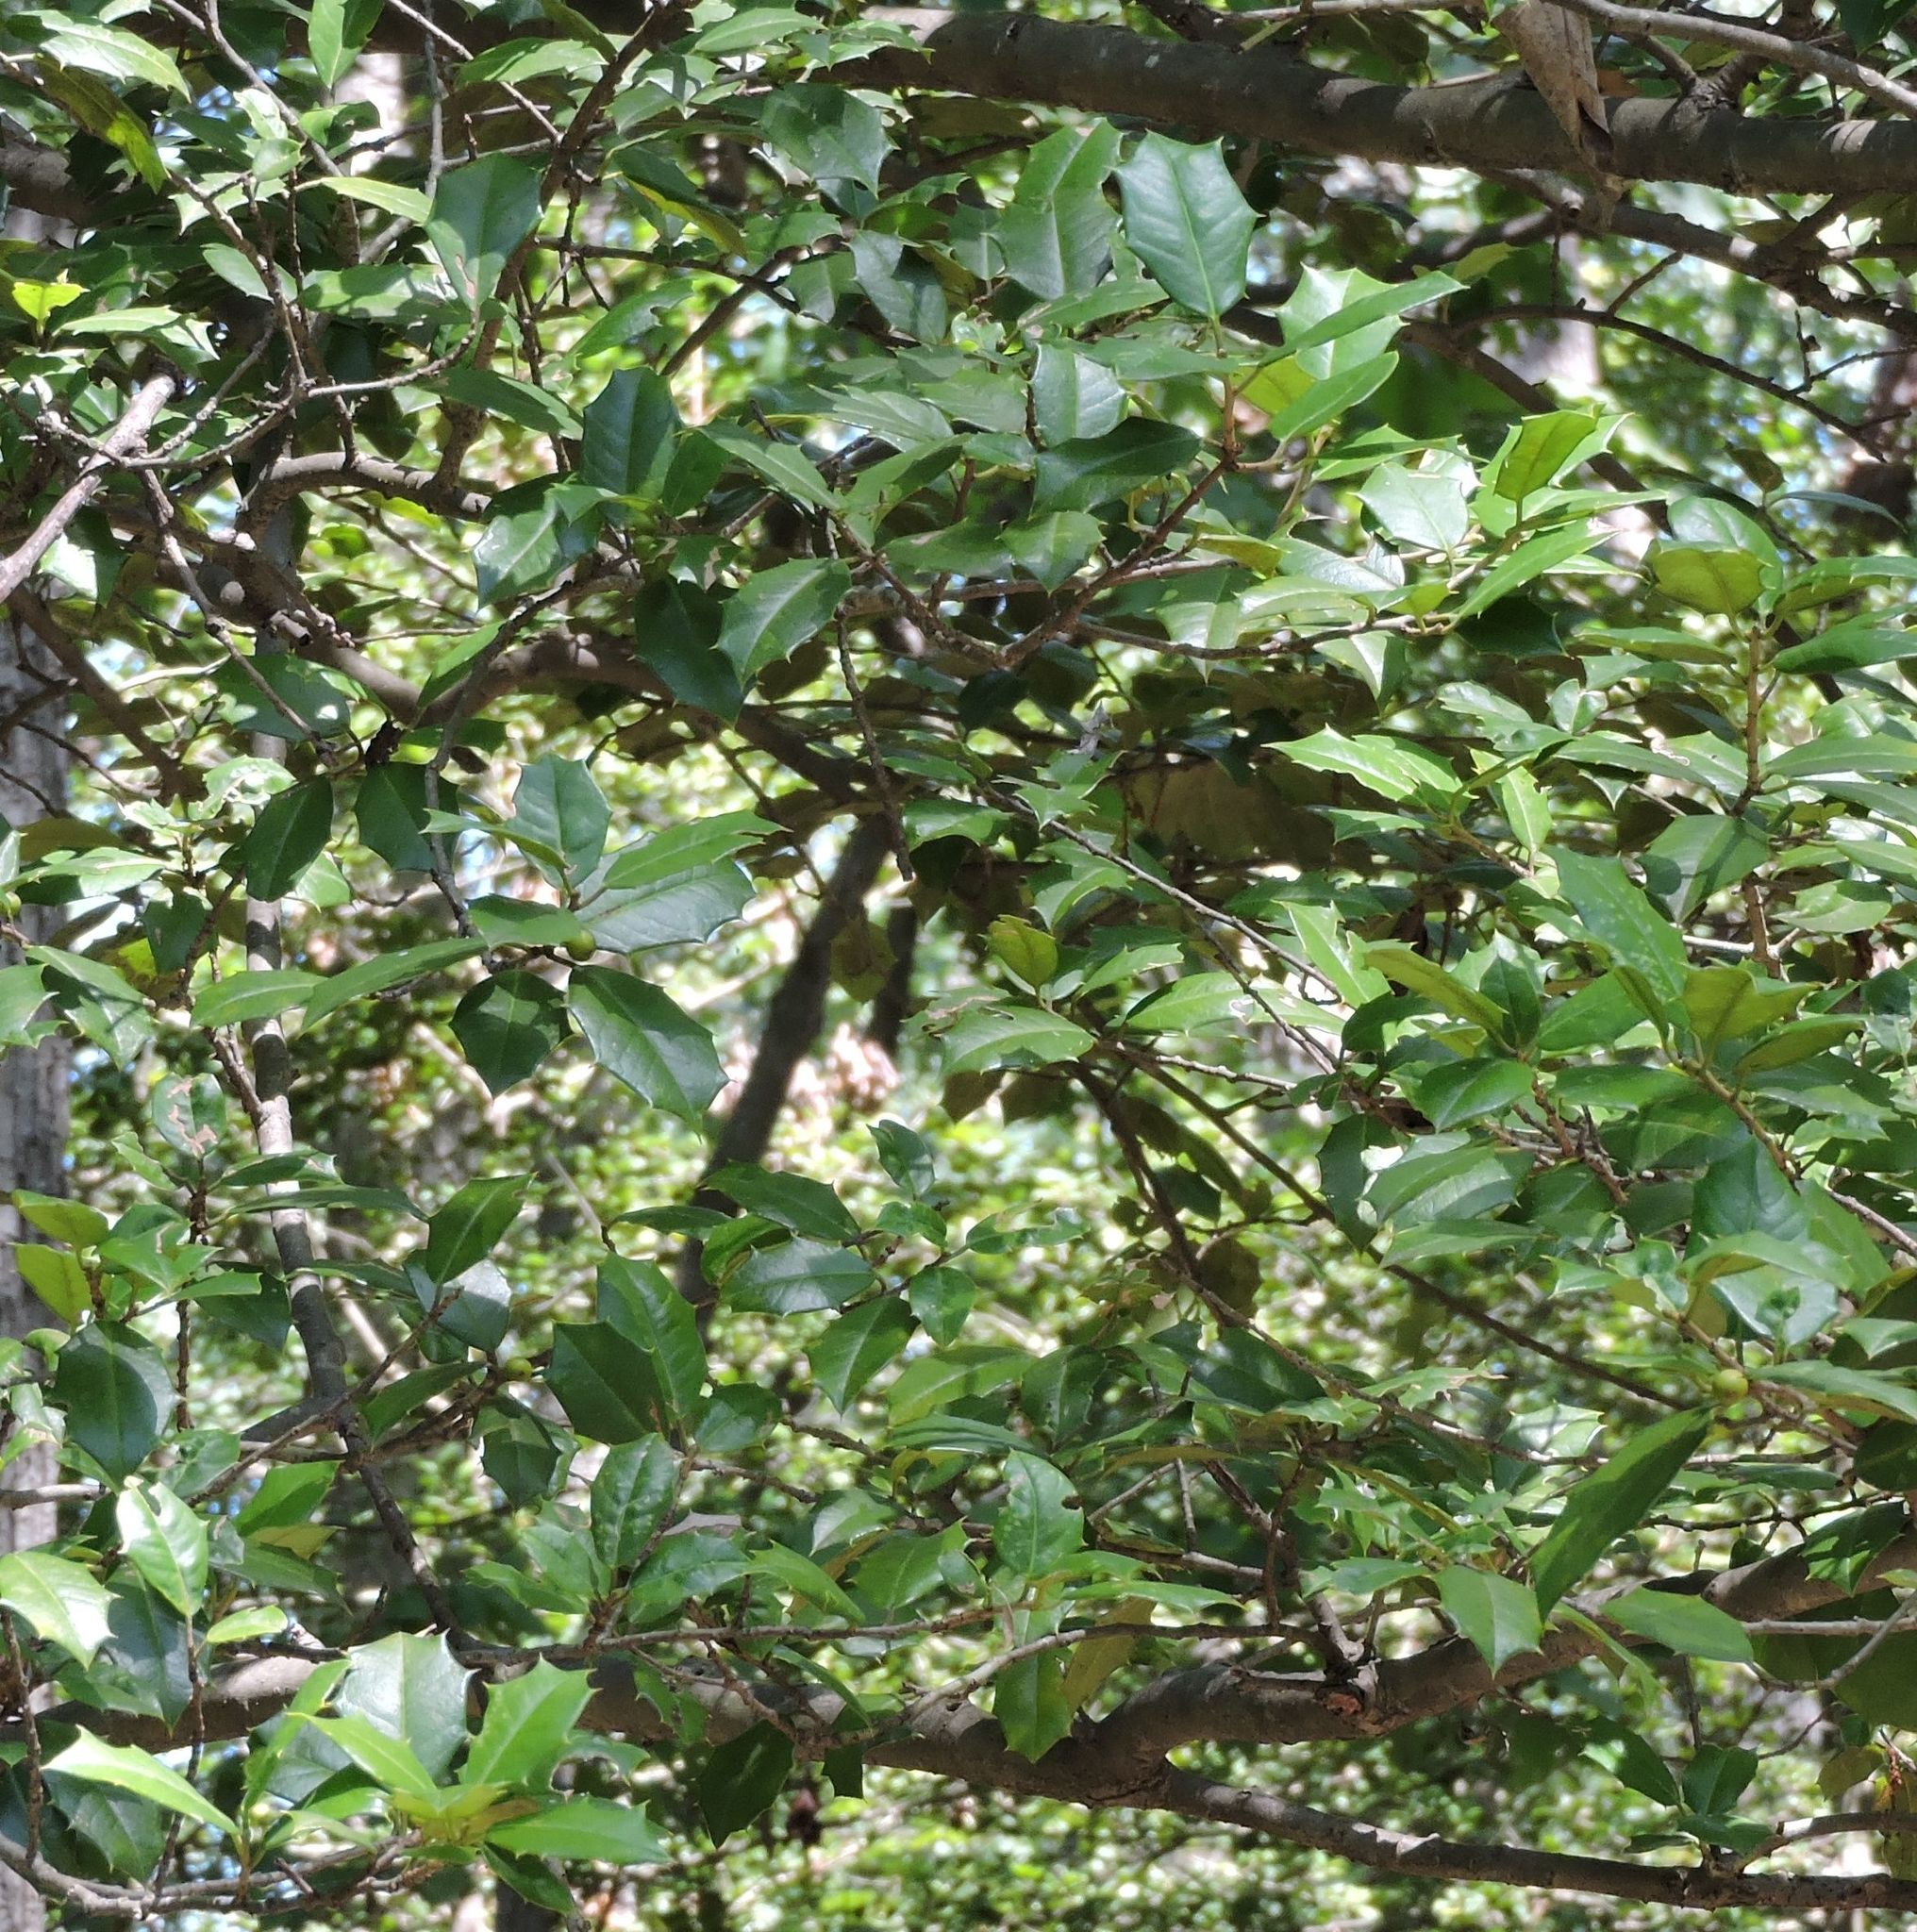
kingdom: Plantae
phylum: Tracheophyta
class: Magnoliopsida
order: Aquifoliales
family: Aquifoliaceae
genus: Ilex
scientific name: Ilex opaca
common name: American holly
